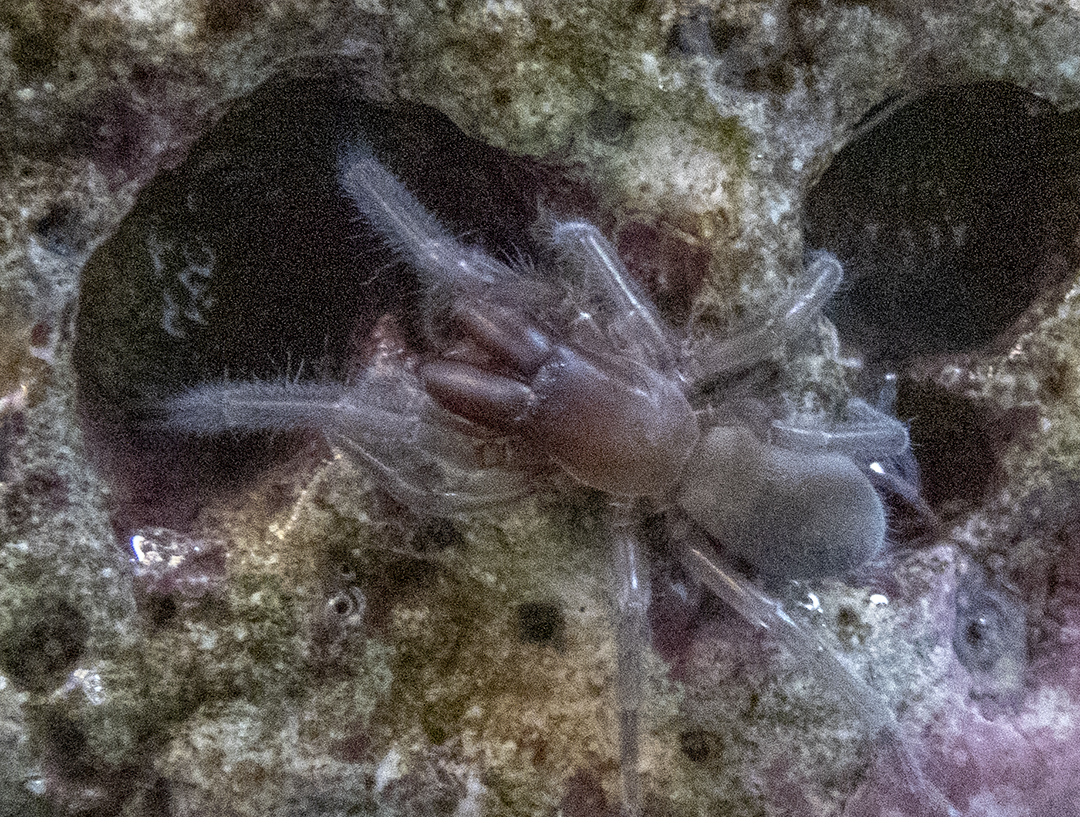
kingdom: Animalia
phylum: Arthropoda
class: Arachnida
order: Araneae
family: Desidae
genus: Desis
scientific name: Desis marina
